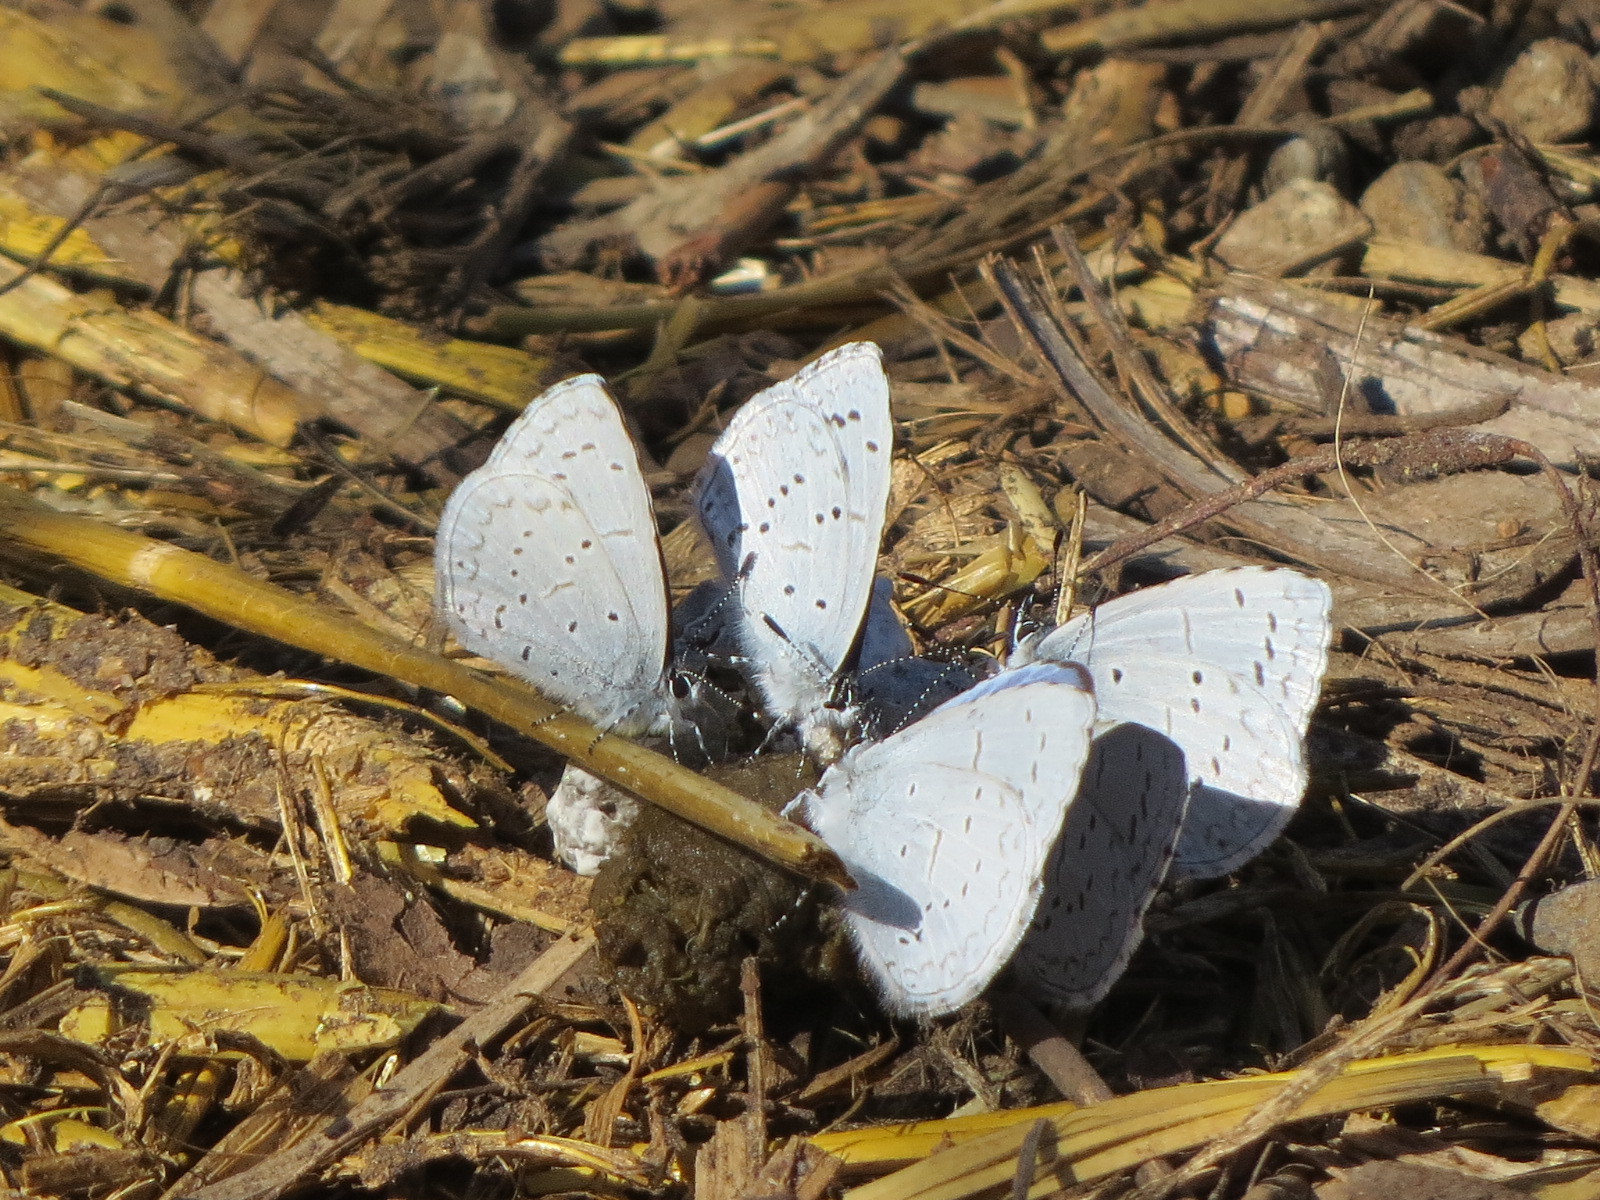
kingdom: Animalia
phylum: Arthropoda
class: Insecta
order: Lepidoptera
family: Lycaenidae
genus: Celastrina
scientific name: Celastrina ladon
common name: Spring azure
